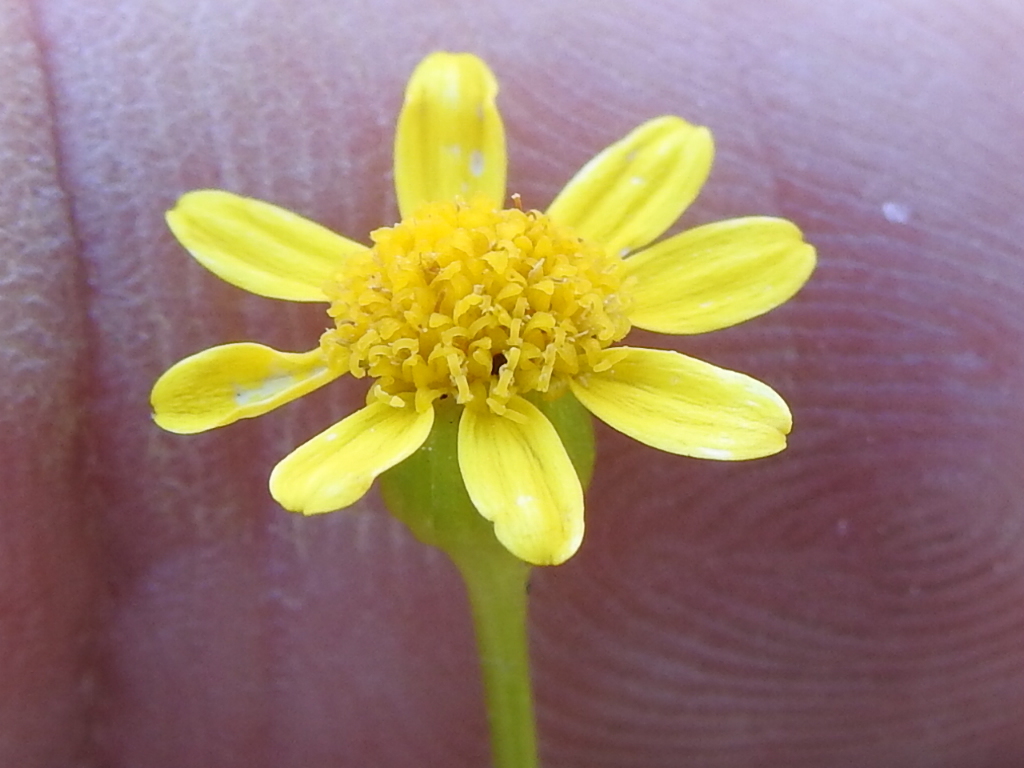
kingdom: Plantae
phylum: Tracheophyta
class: Magnoliopsida
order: Asterales
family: Asteraceae
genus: Packera
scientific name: Packera tampicana
